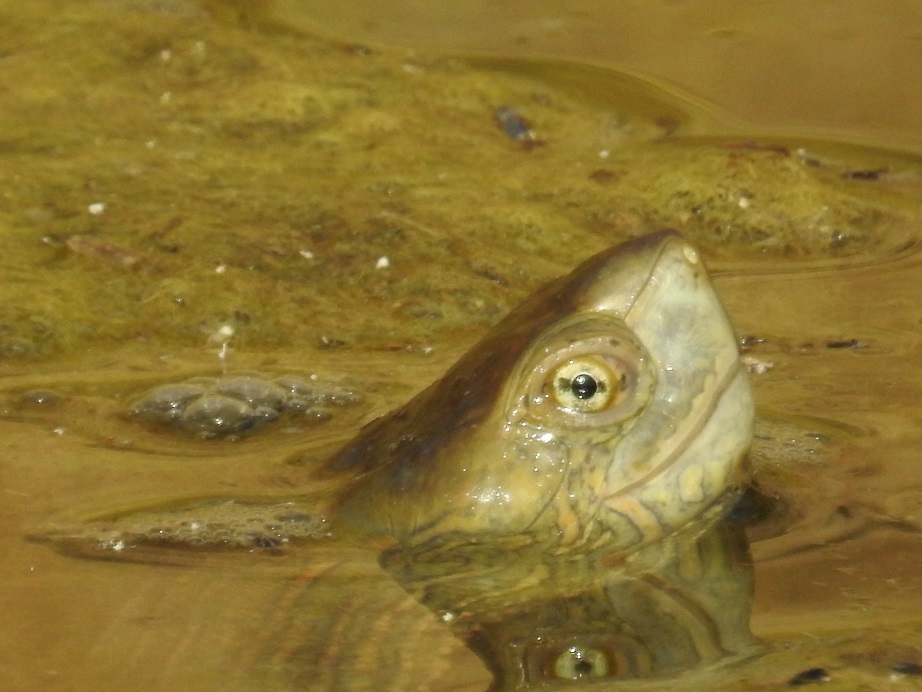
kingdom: Animalia
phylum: Chordata
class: Testudines
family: Geoemydidae
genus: Mauremys
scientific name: Mauremys leprosa
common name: Mediterranean pond turtle
